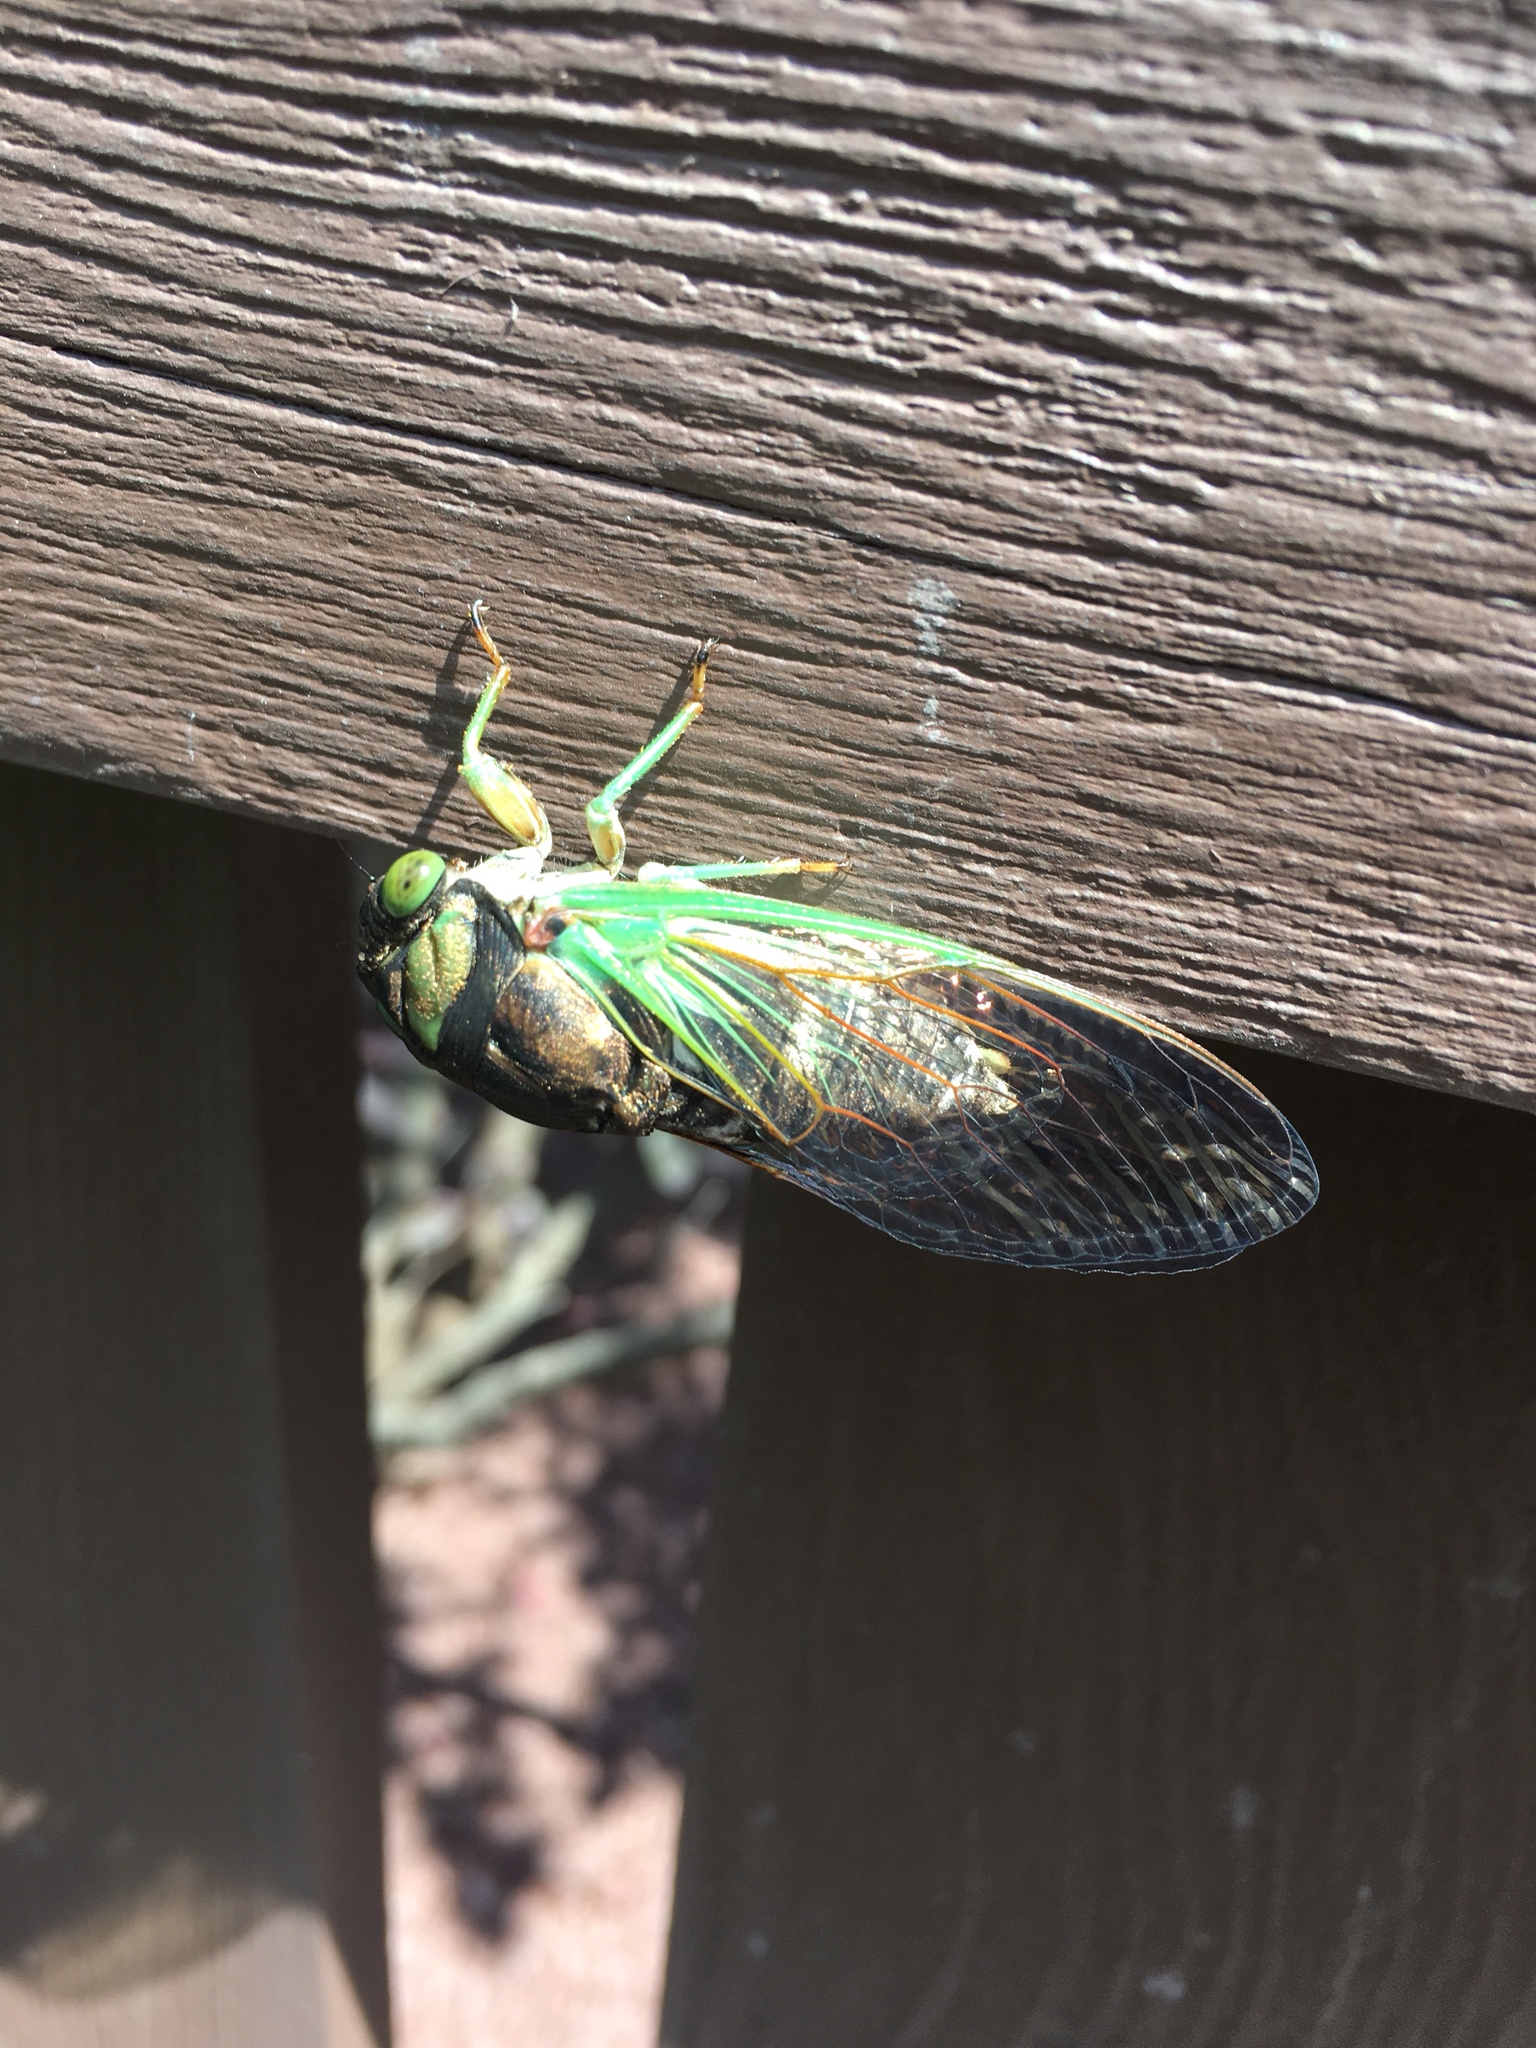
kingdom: Animalia
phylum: Arthropoda
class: Insecta
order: Hemiptera
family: Cicadidae
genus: Neotibicen
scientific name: Neotibicen tibicen
